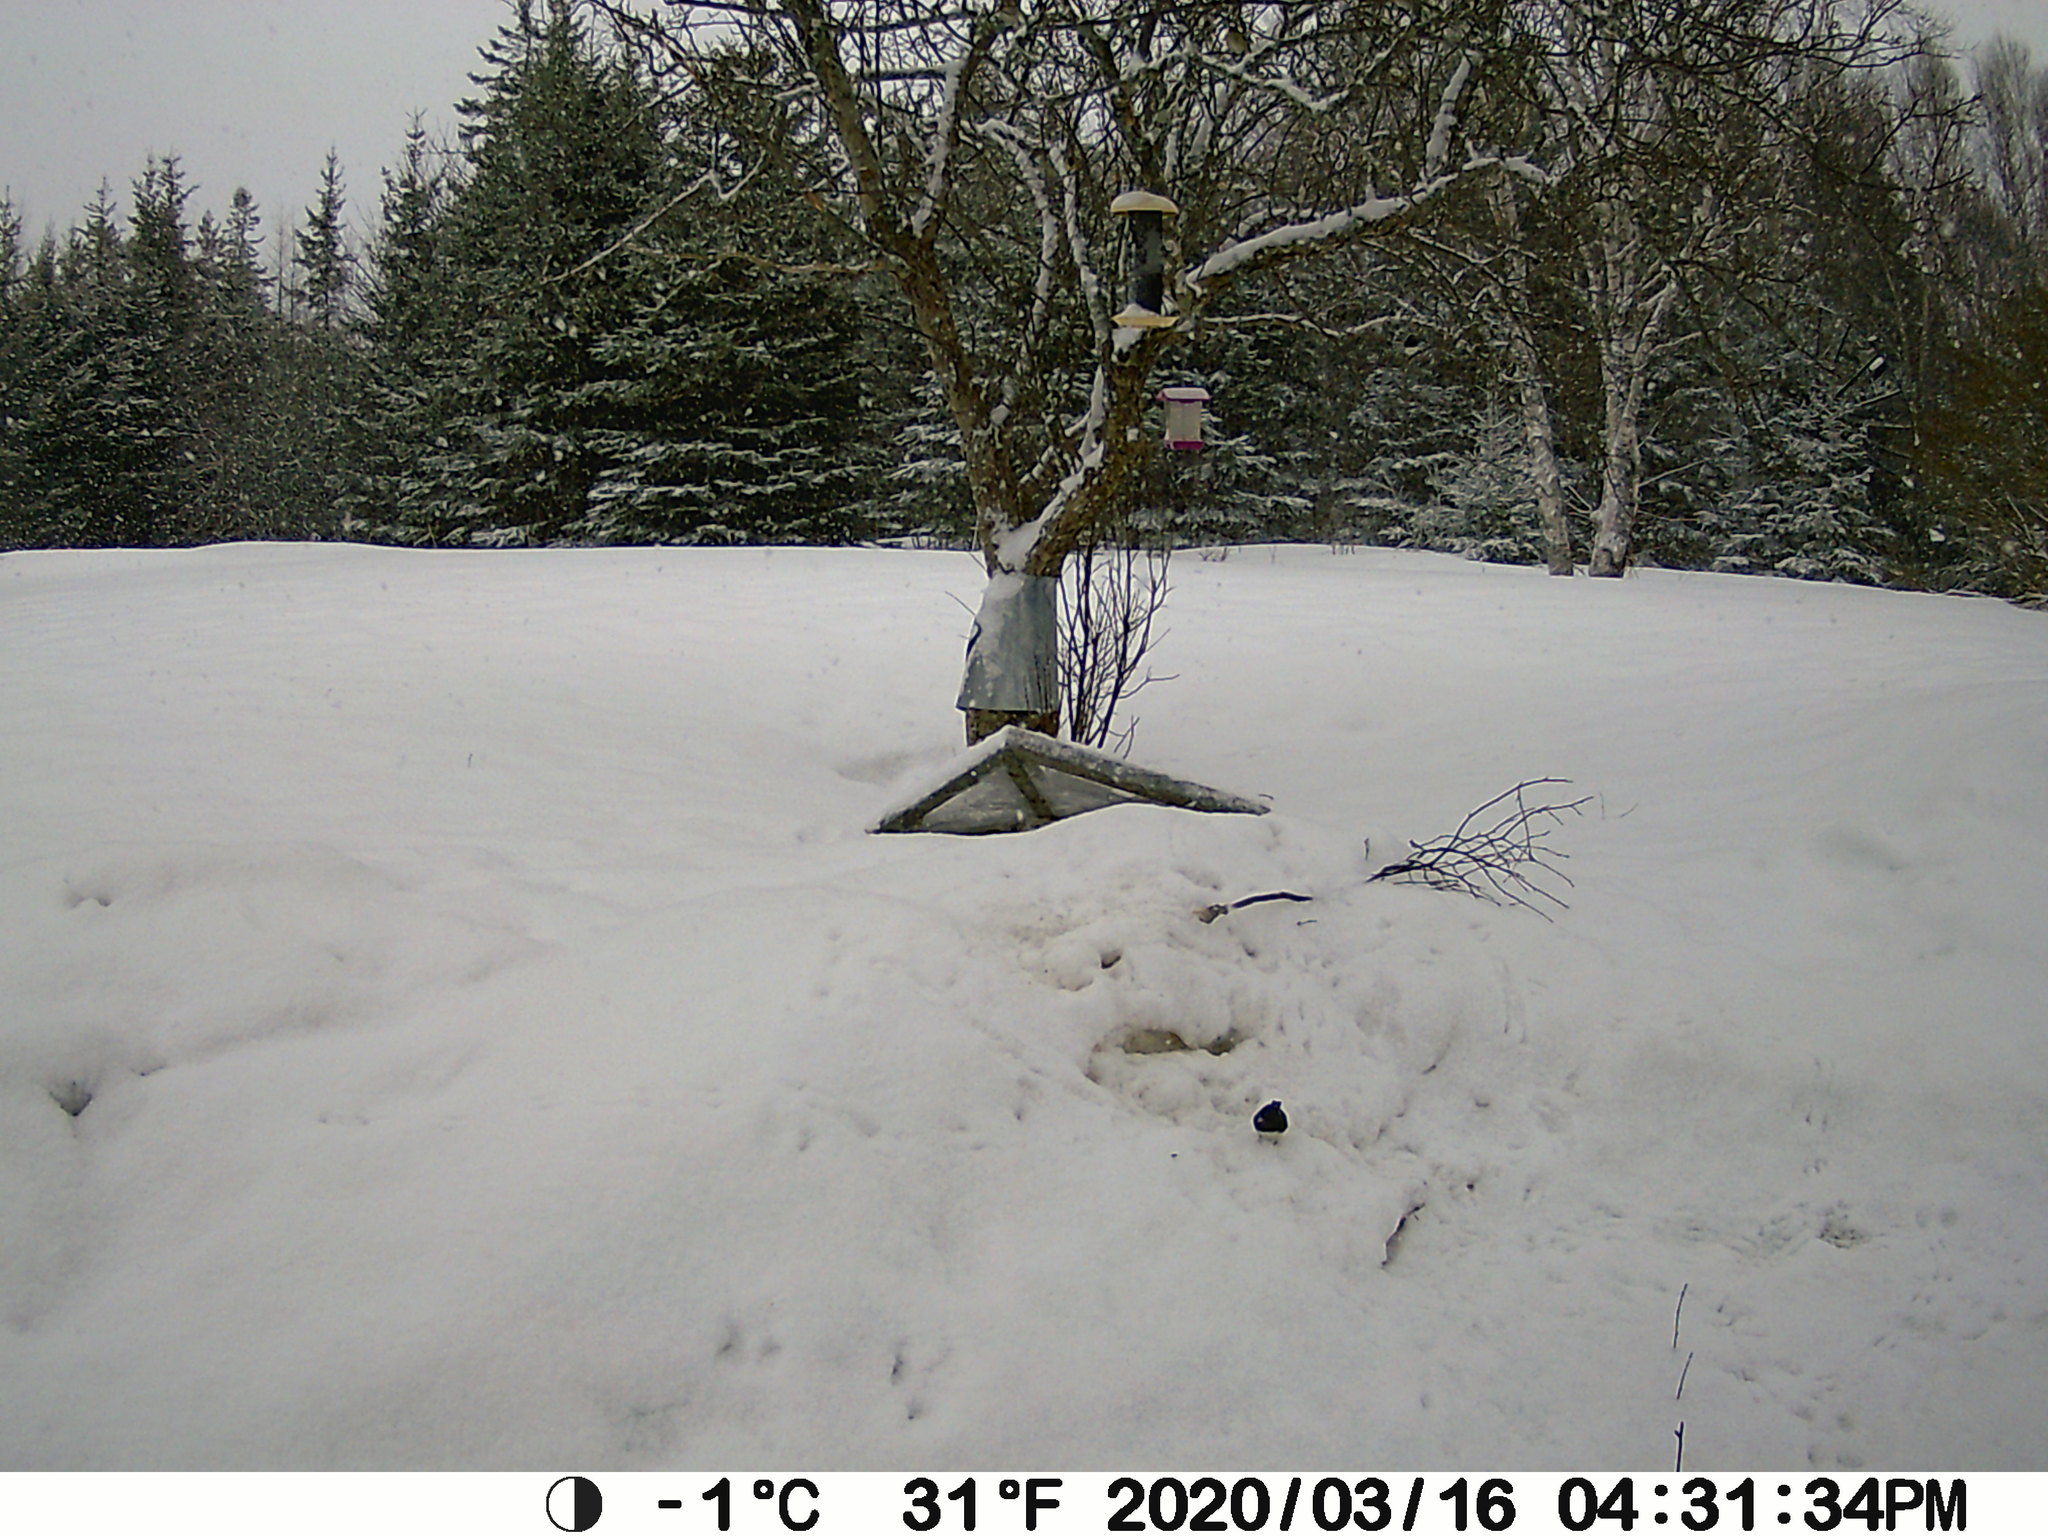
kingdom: Animalia
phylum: Chordata
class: Aves
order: Passeriformes
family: Passerellidae
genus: Junco
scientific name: Junco hyemalis
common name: Dark-eyed junco
